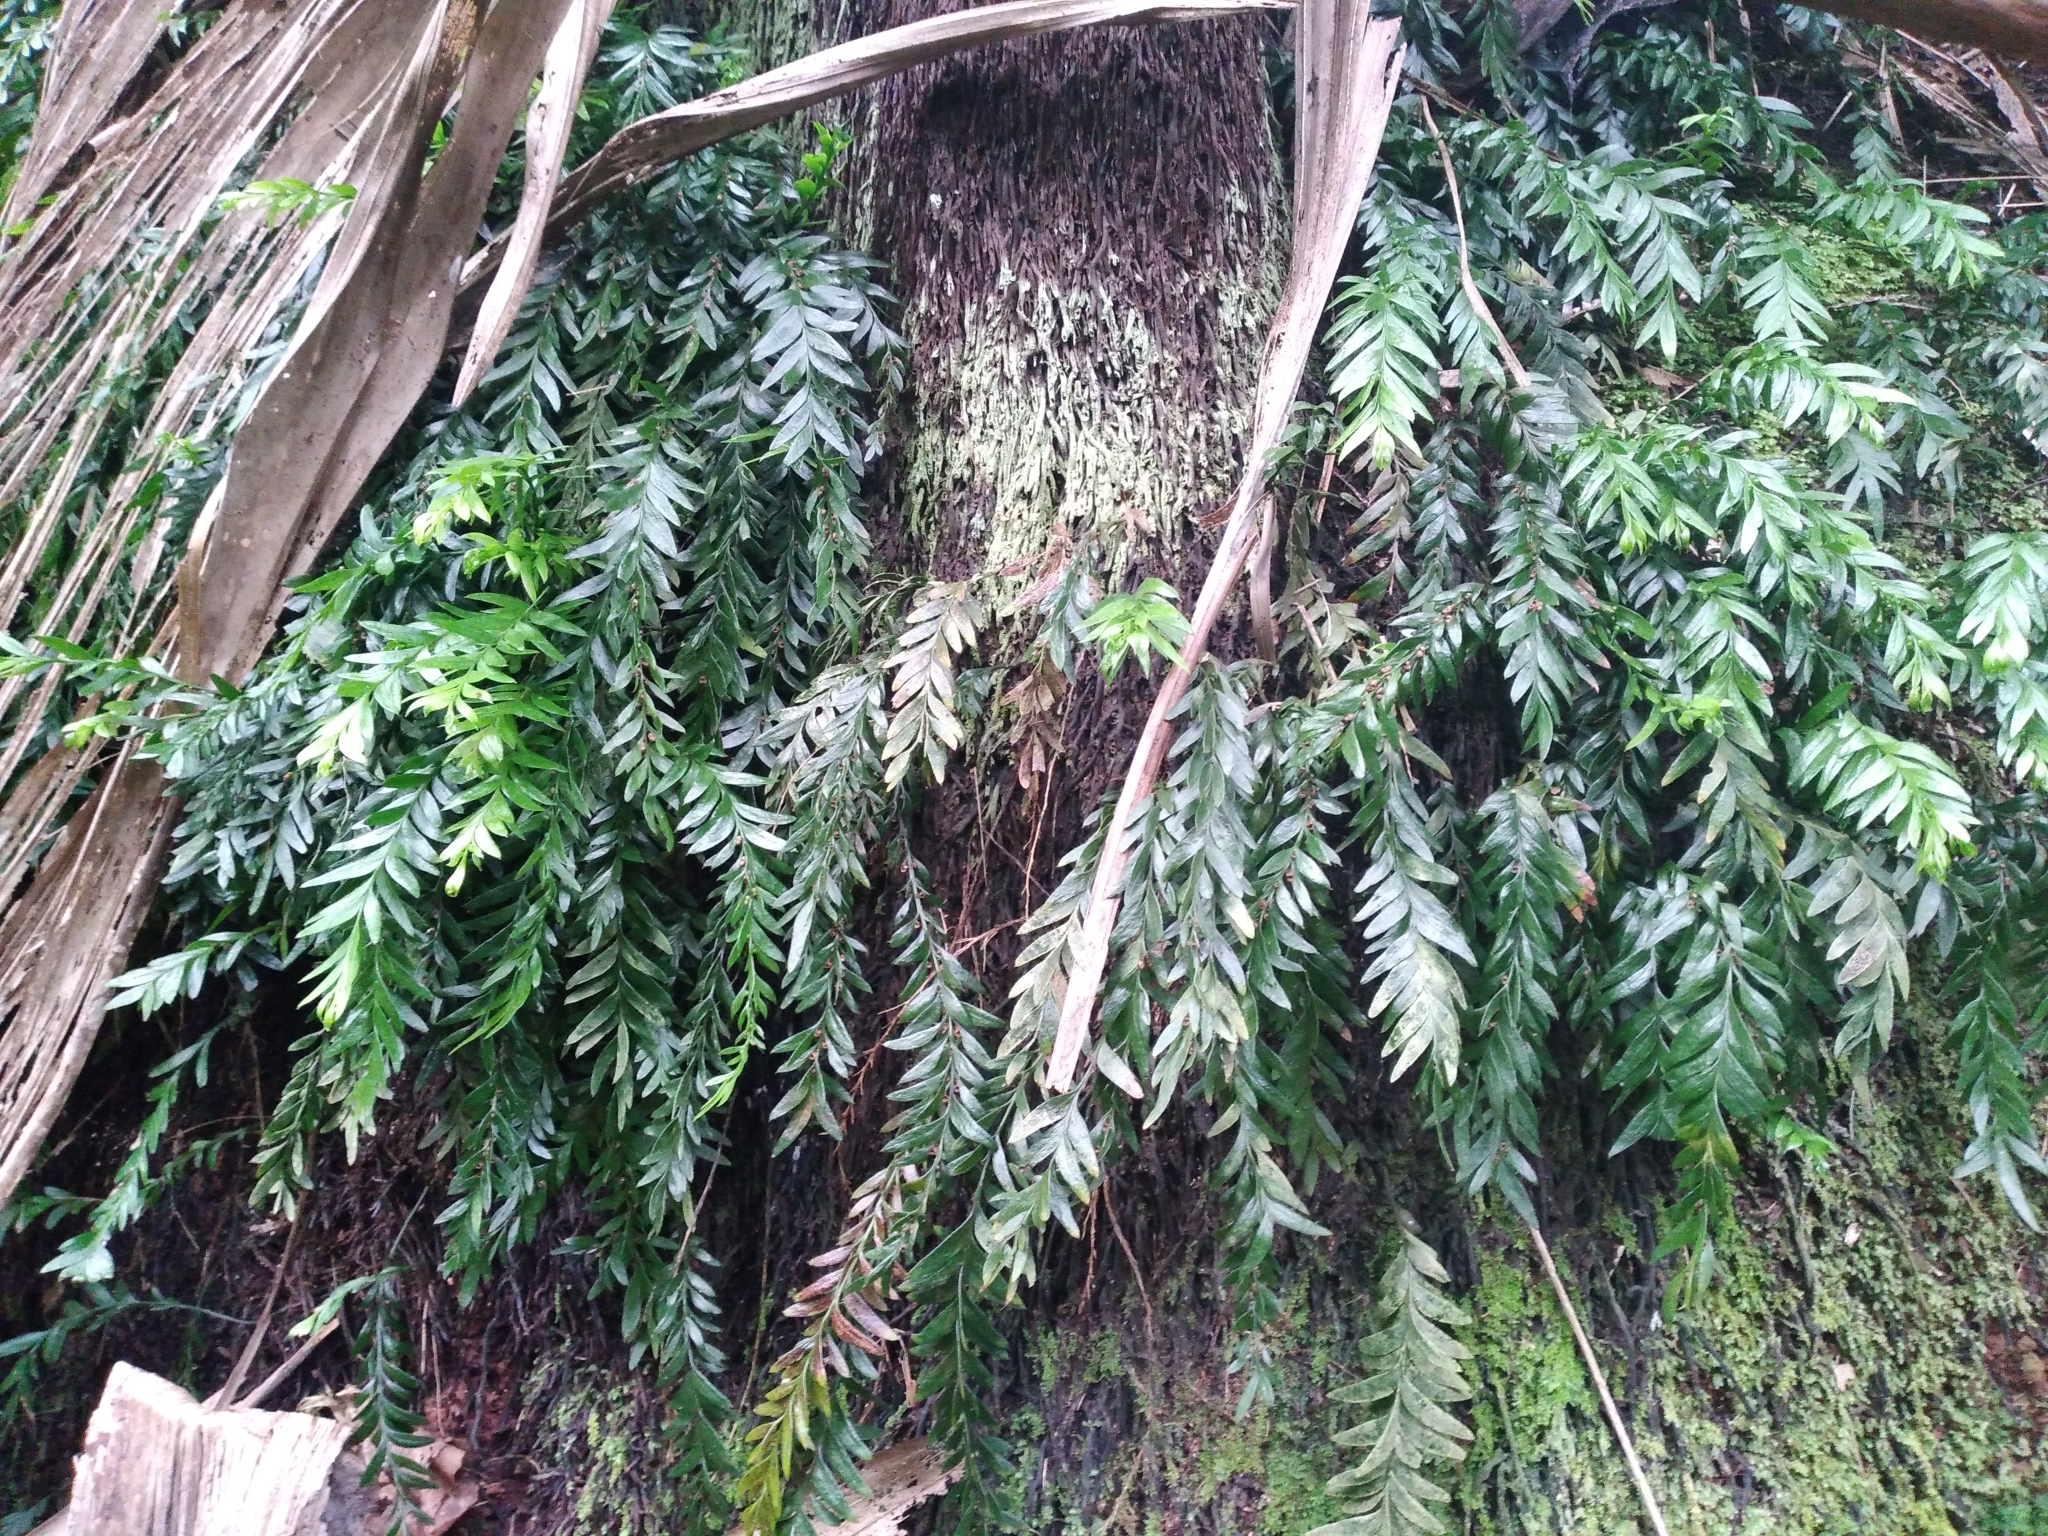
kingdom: Plantae
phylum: Tracheophyta
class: Polypodiopsida
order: Psilotales
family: Psilotaceae
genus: Tmesipteris
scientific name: Tmesipteris norfolkensis
